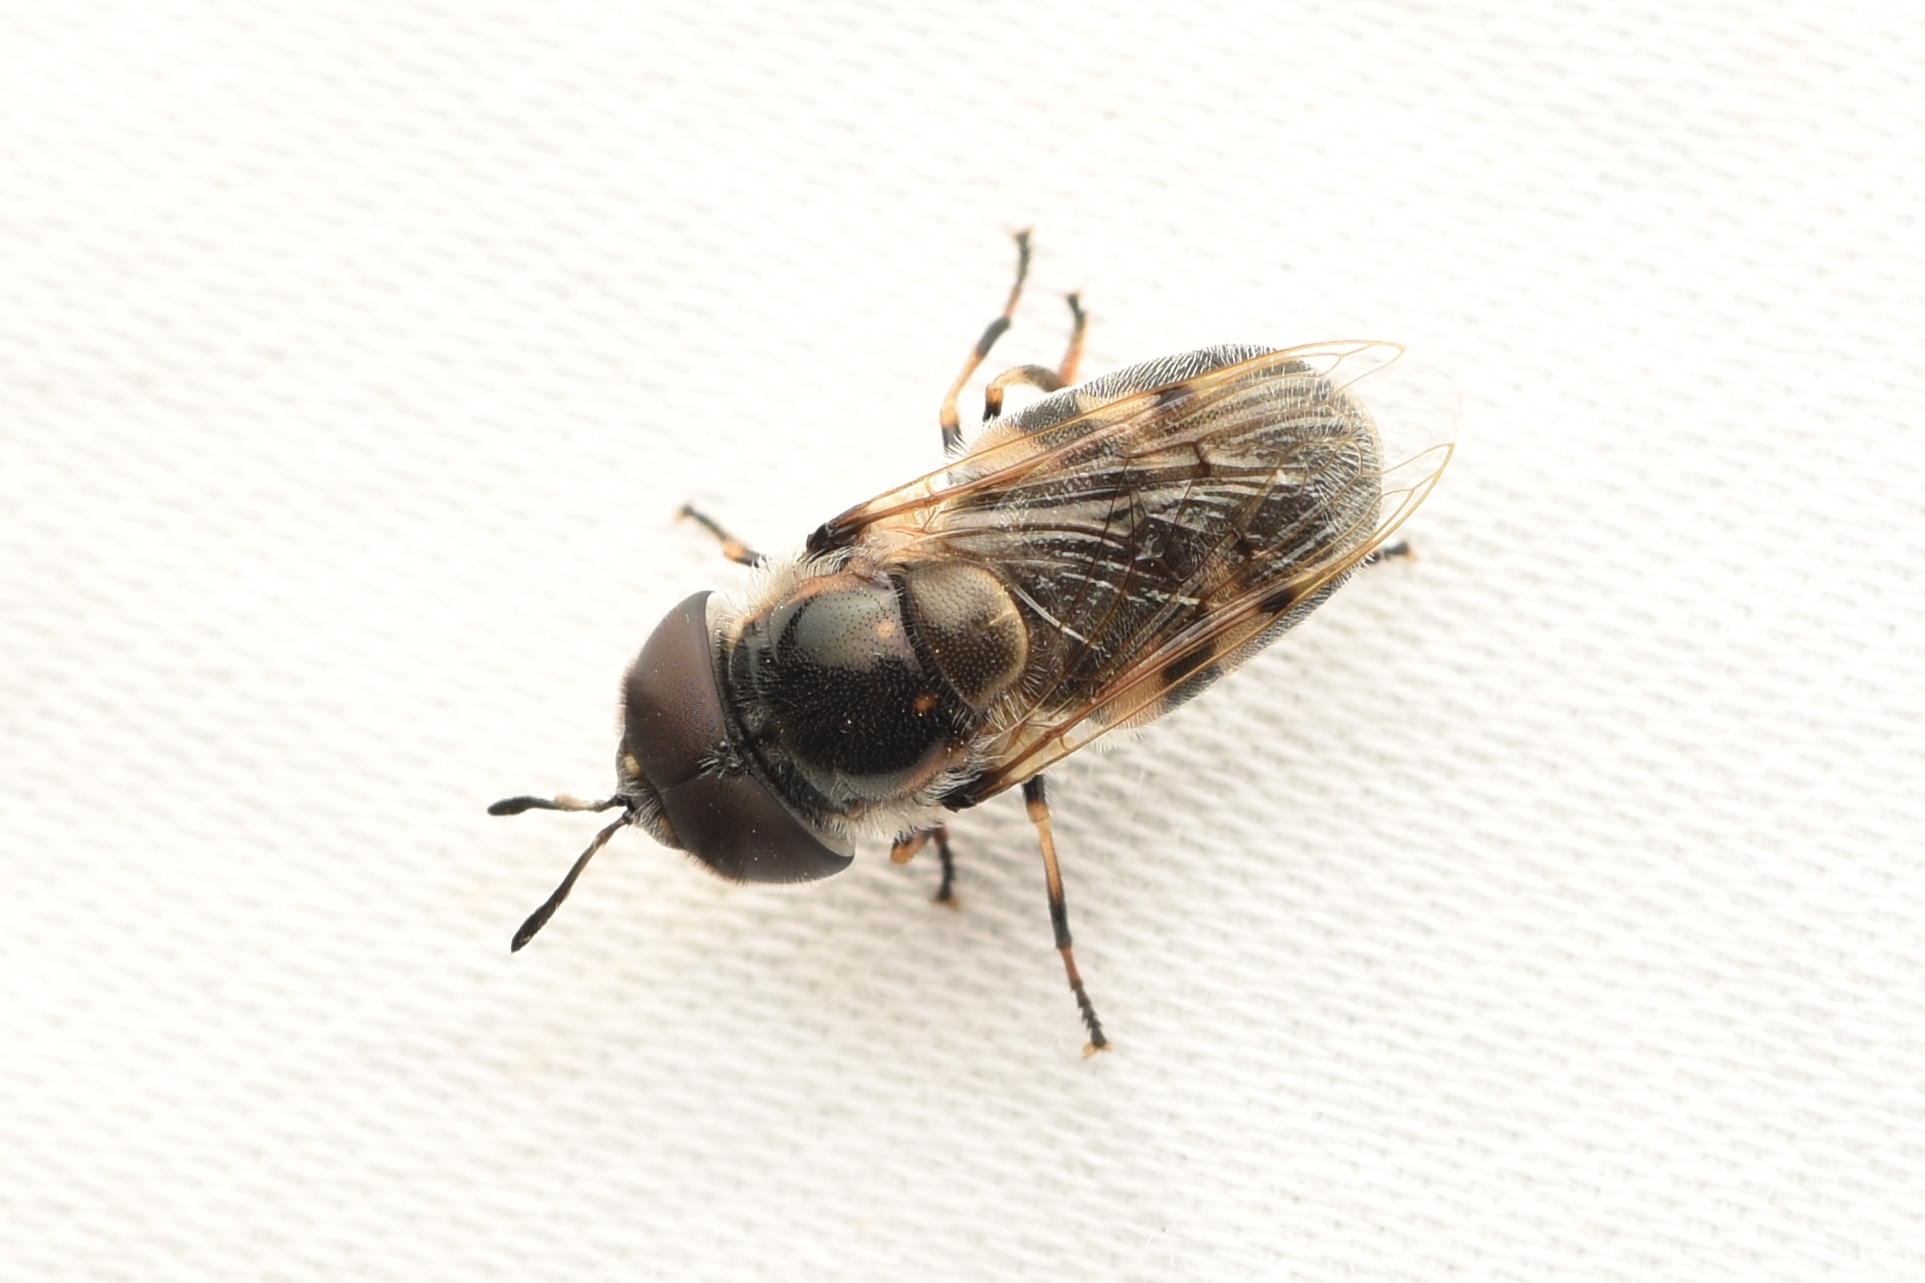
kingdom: Animalia
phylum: Arthropoda
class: Insecta
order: Diptera
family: Syrphidae
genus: Copestylum
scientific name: Copestylum caudatum
